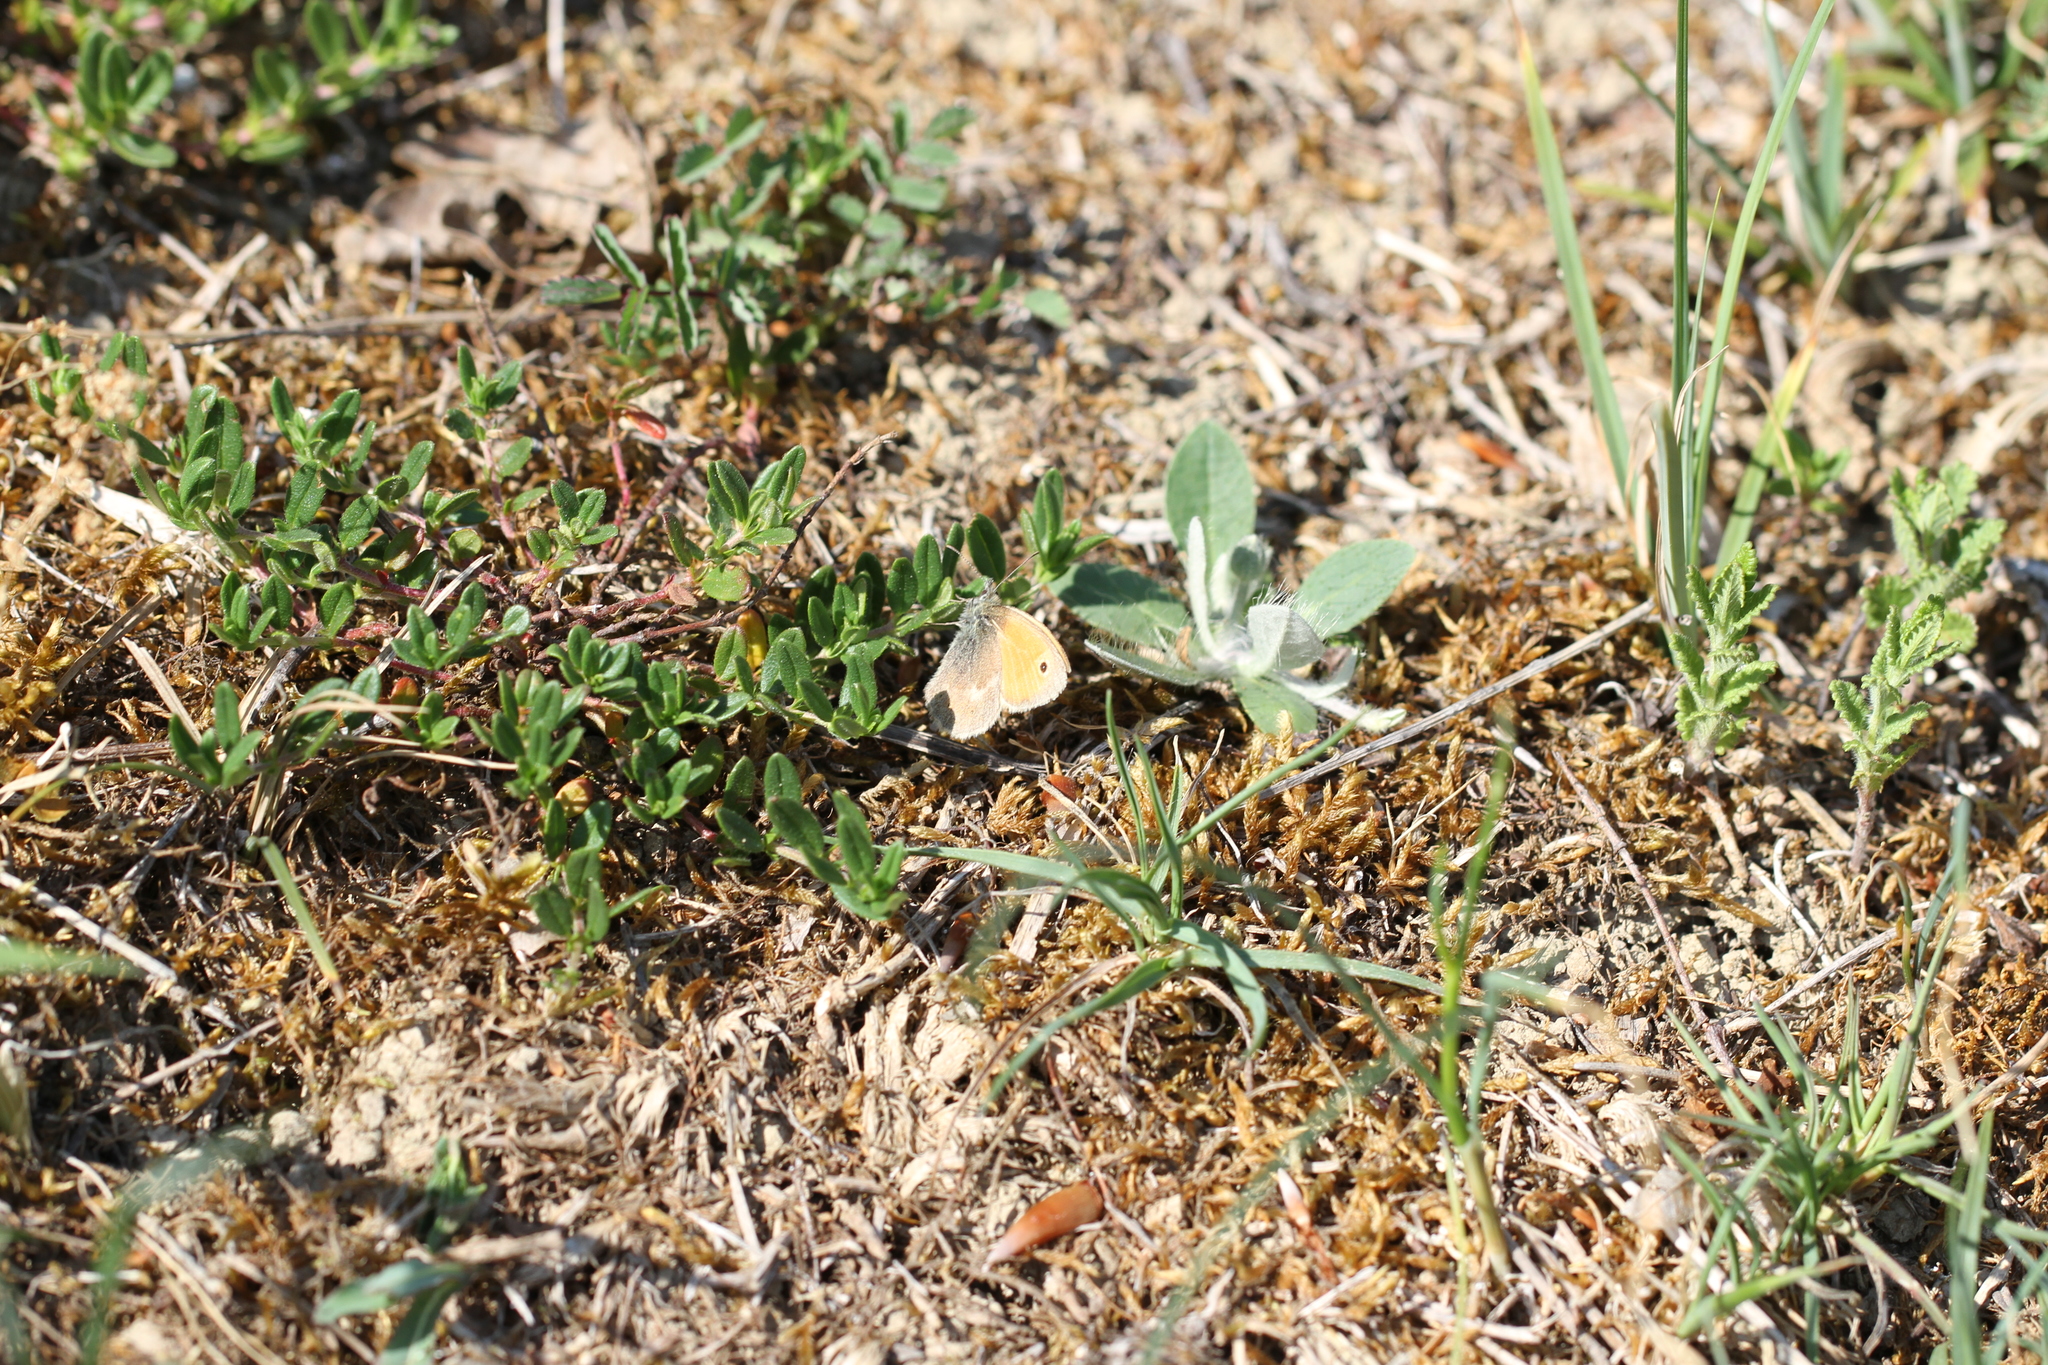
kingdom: Animalia
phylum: Arthropoda
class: Insecta
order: Lepidoptera
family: Nymphalidae
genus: Coenonympha
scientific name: Coenonympha pamphilus
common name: Small heath
